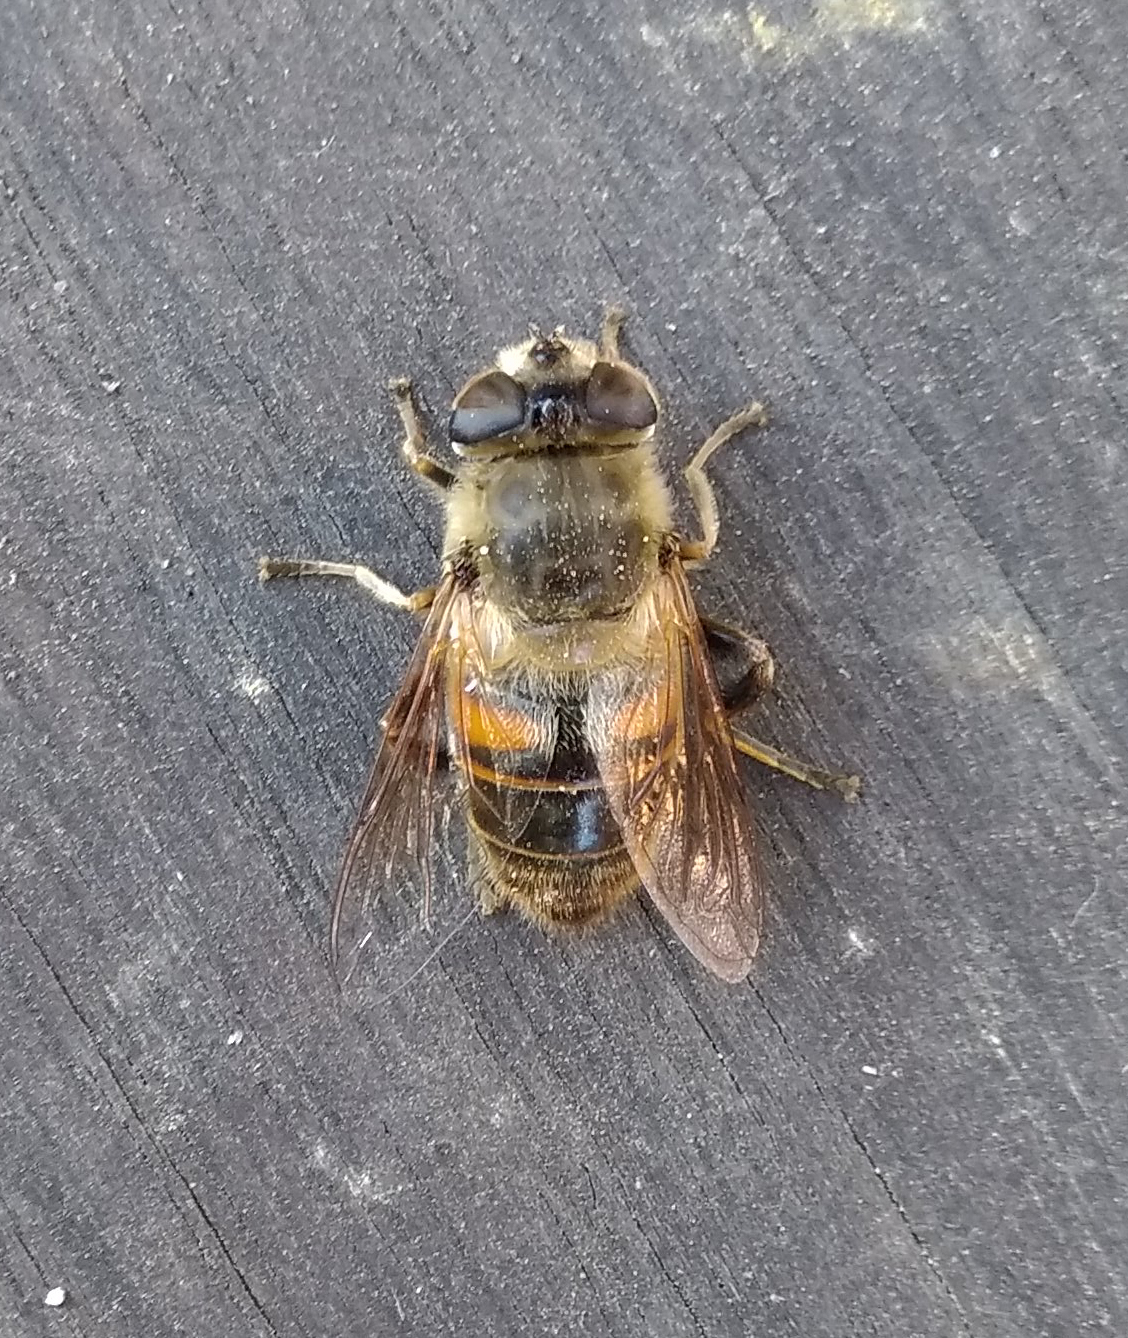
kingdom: Animalia
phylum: Arthropoda
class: Insecta
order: Diptera
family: Syrphidae
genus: Eristalis
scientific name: Eristalis tenax
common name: Drone fly
